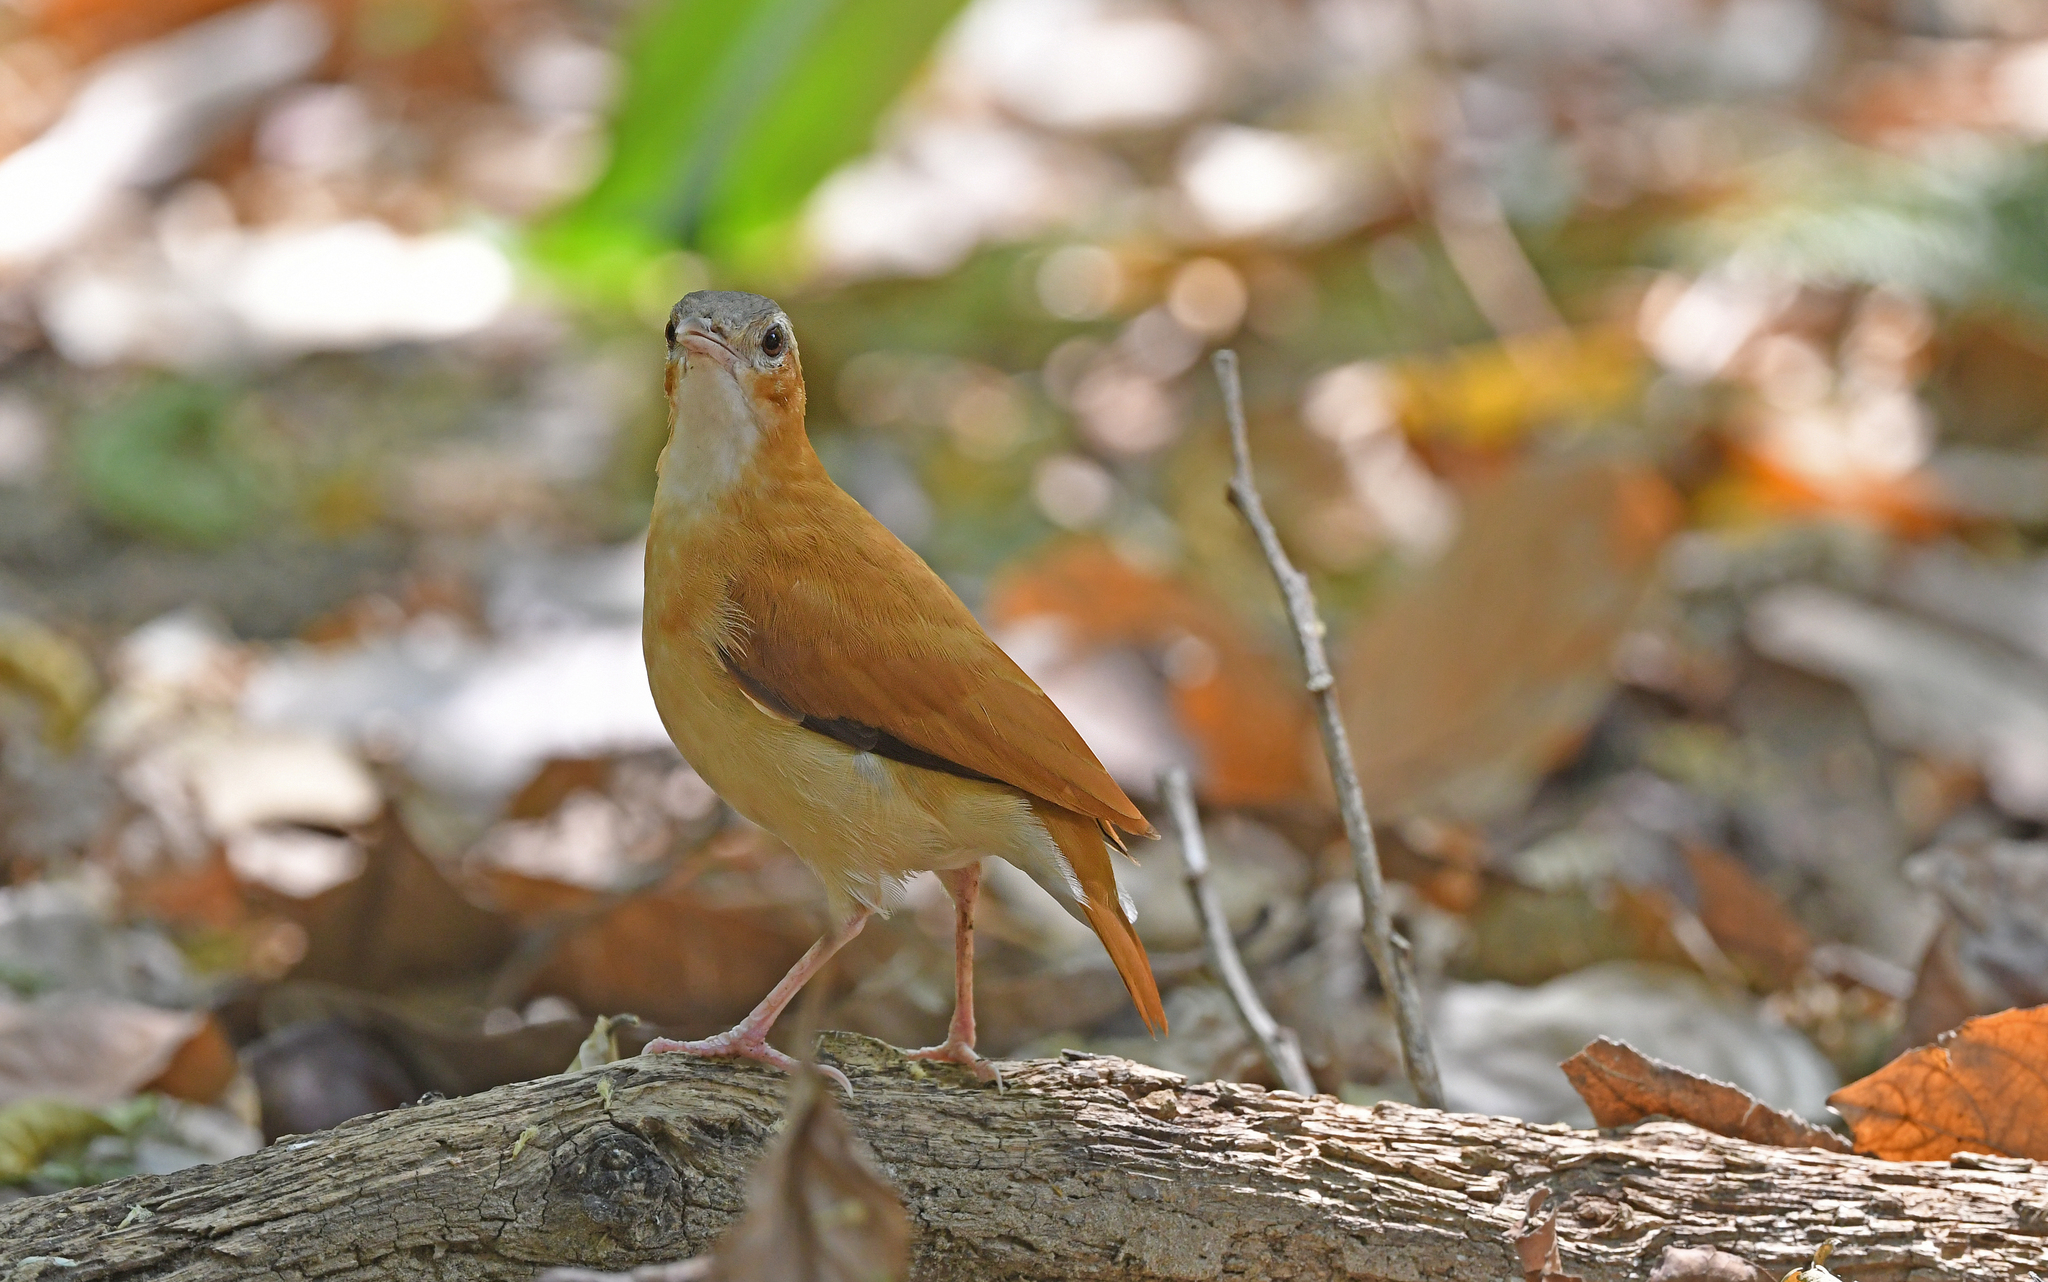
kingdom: Animalia
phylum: Chordata
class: Aves
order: Passeriformes
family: Furnariidae
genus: Furnarius
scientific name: Furnarius longirostris
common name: Caribbean hornero
